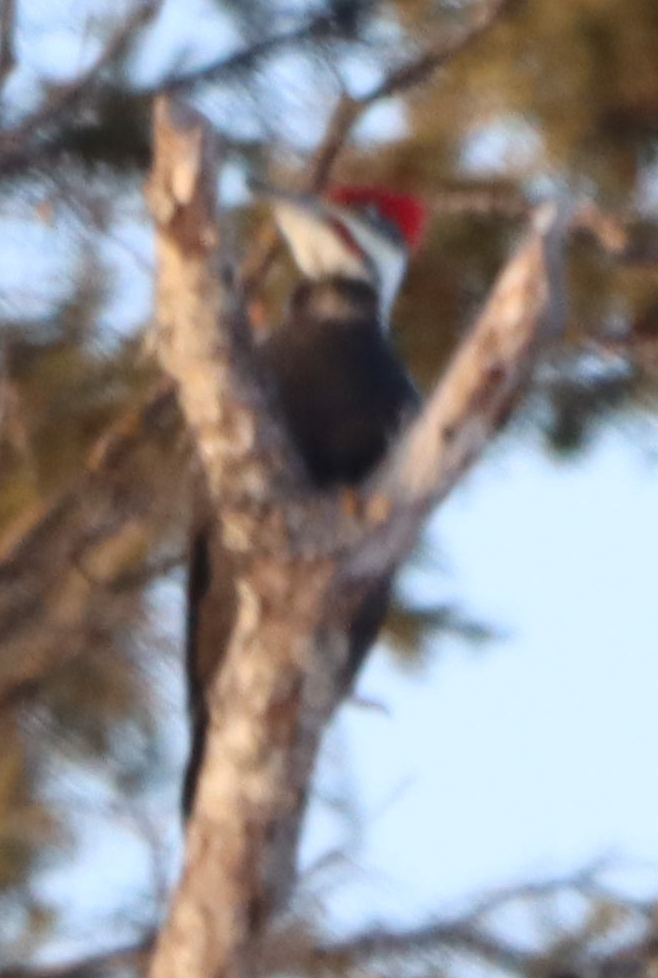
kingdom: Animalia
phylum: Chordata
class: Aves
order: Piciformes
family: Picidae
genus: Dryocopus
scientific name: Dryocopus pileatus
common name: Pileated woodpecker
